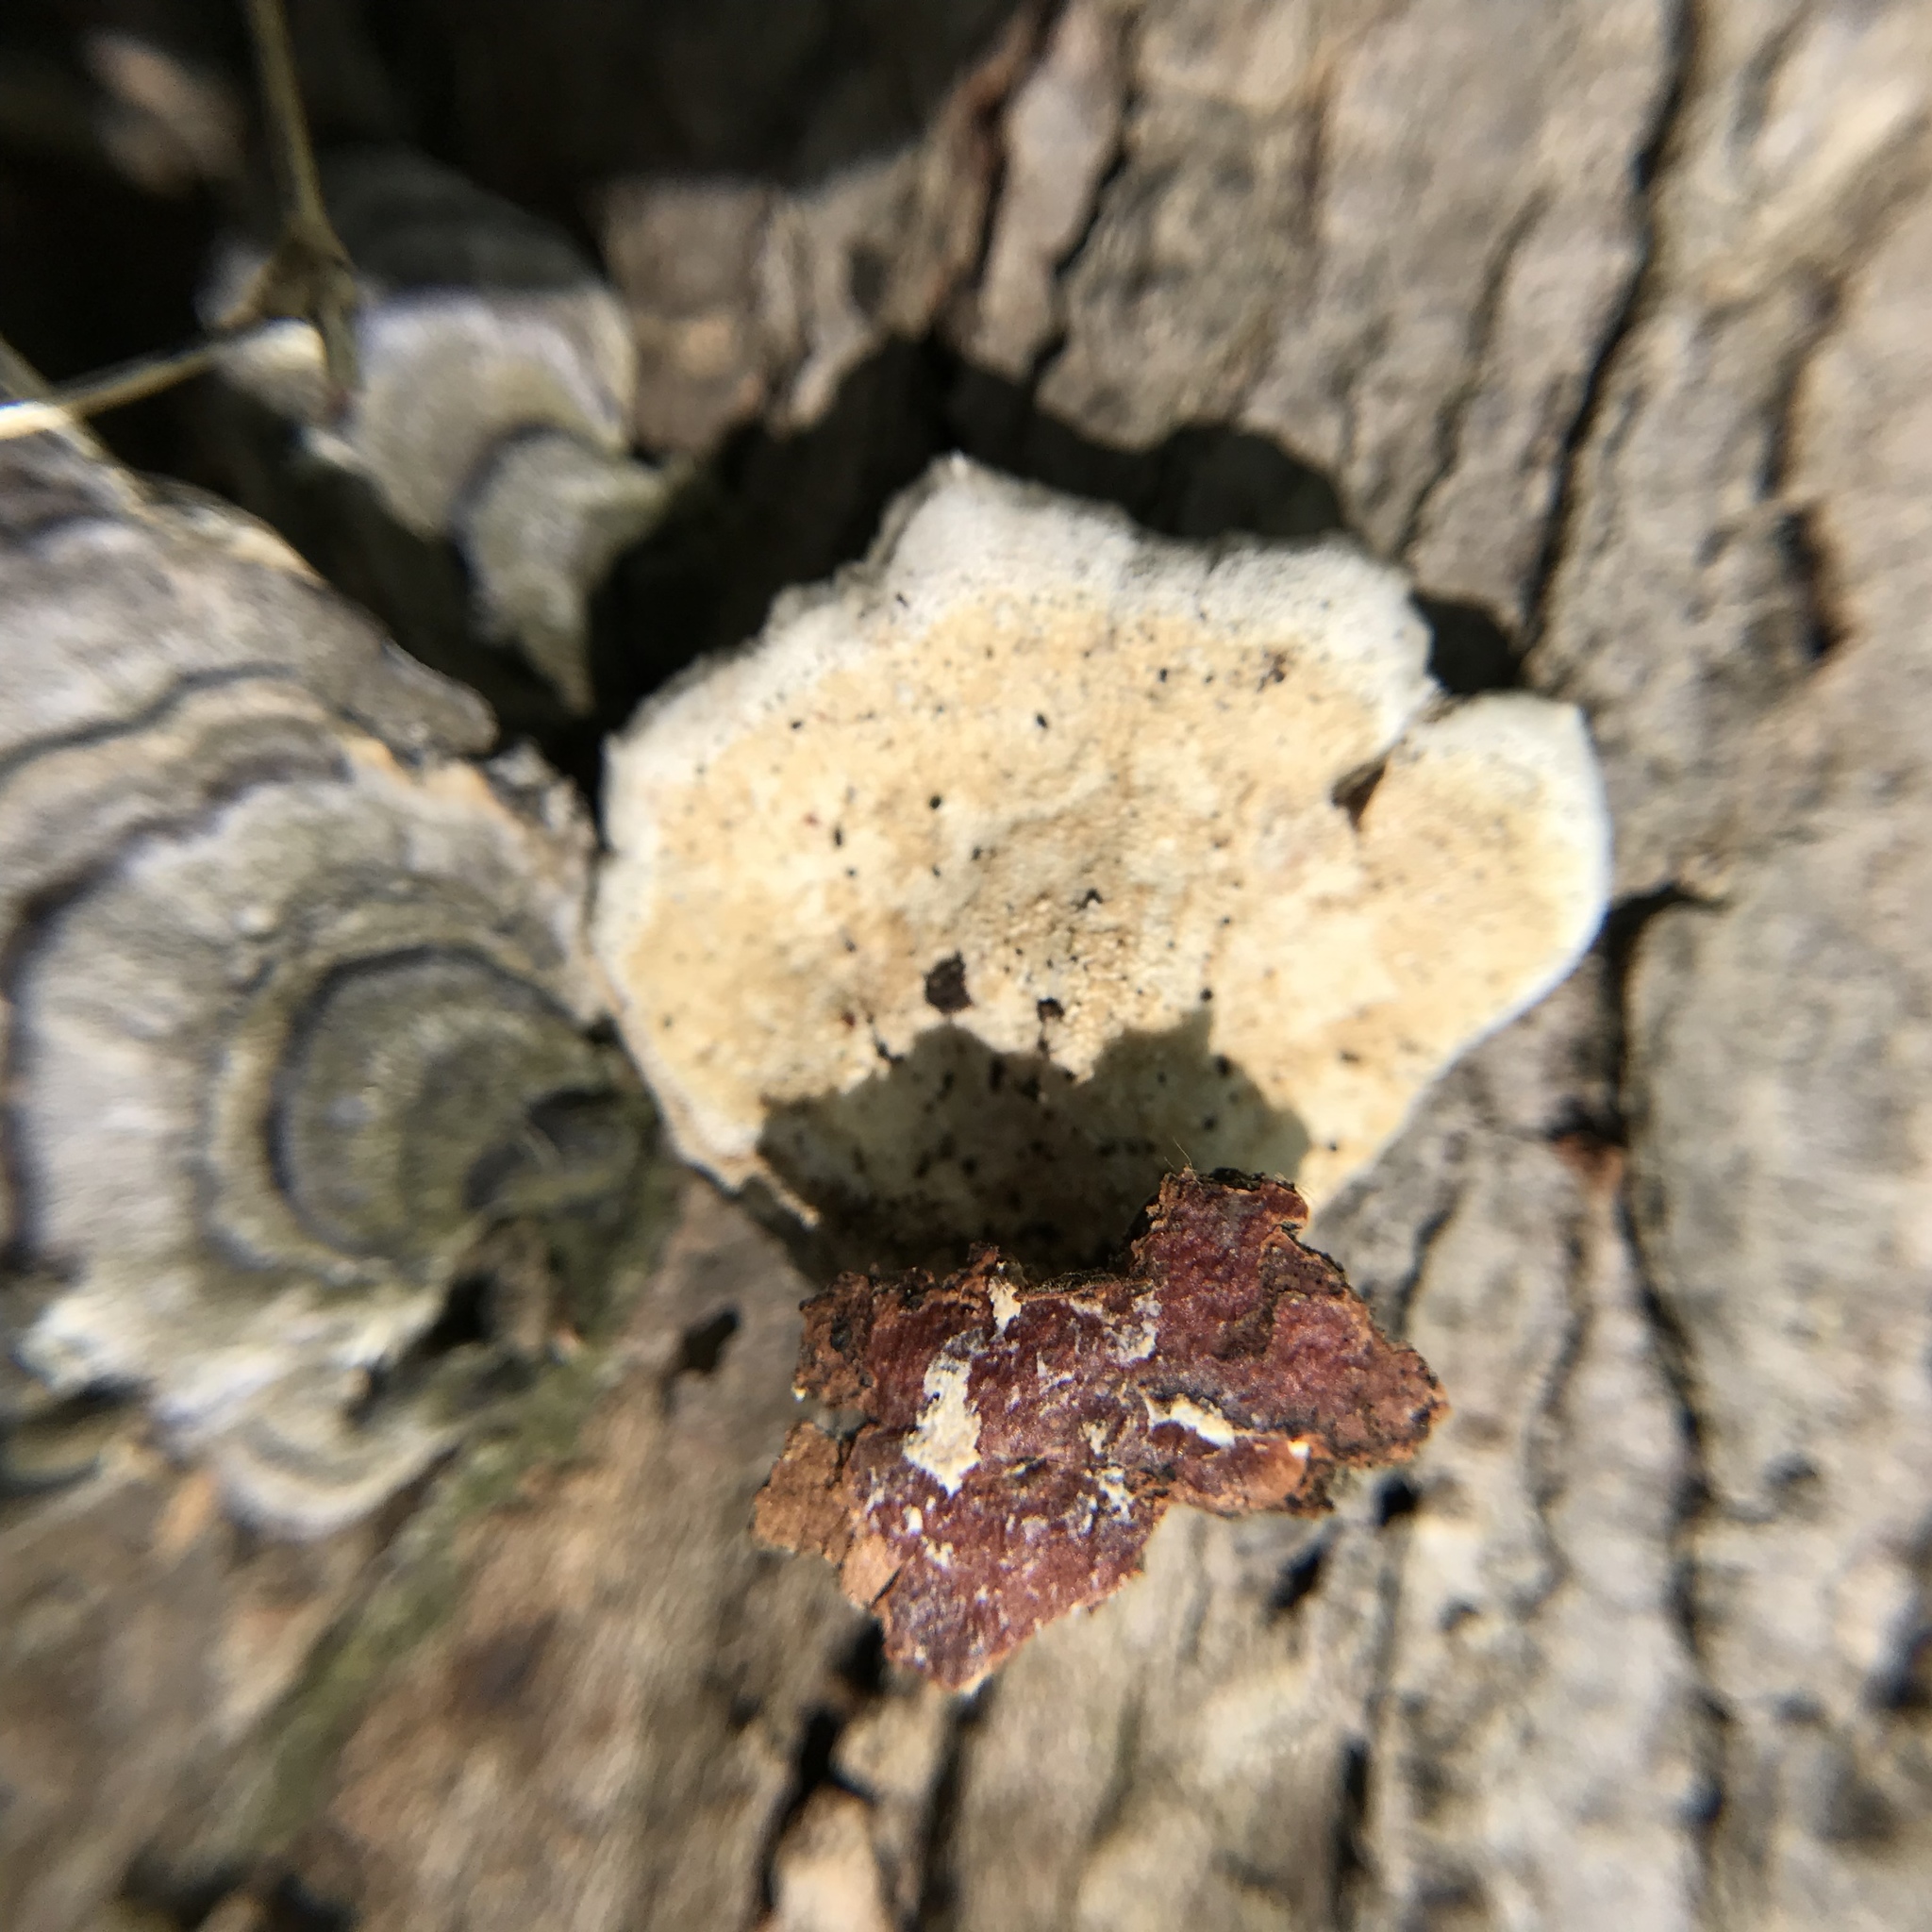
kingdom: Fungi
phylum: Basidiomycota
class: Agaricomycetes
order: Polyporales
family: Polyporaceae
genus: Trametes
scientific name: Trametes versicolor
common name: Turkeytail
